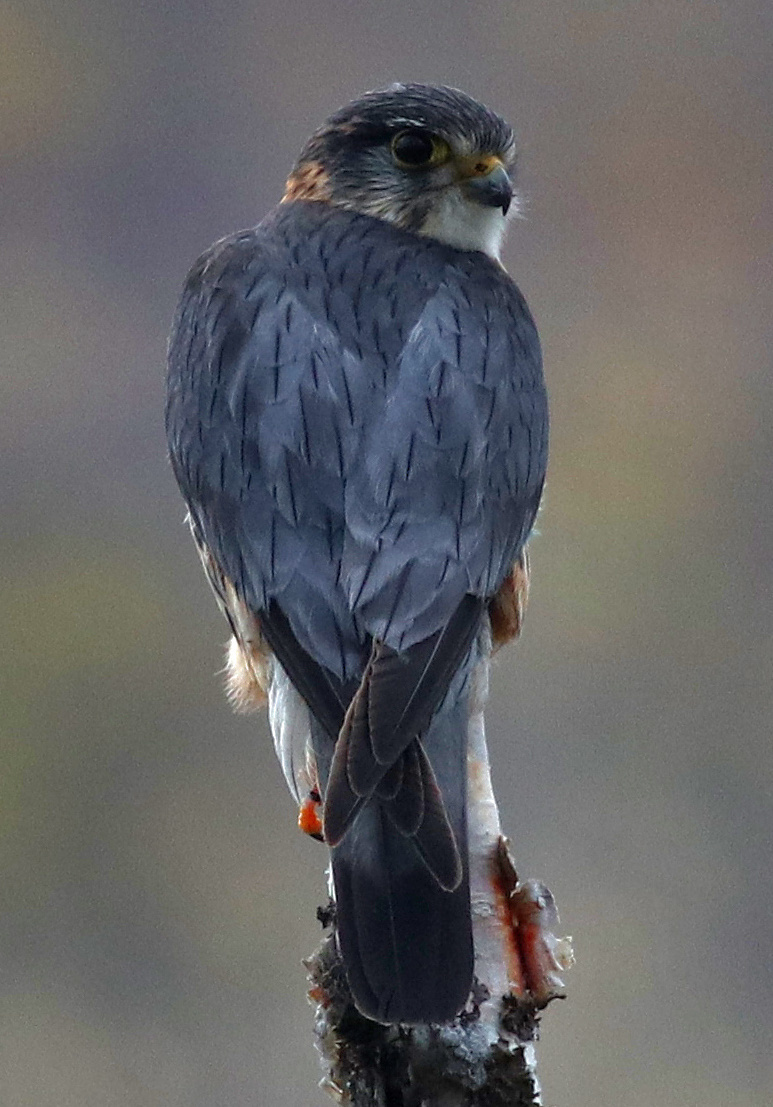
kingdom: Animalia
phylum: Chordata
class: Aves
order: Falconiformes
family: Falconidae
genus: Falco
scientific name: Falco columbarius
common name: Merlin
